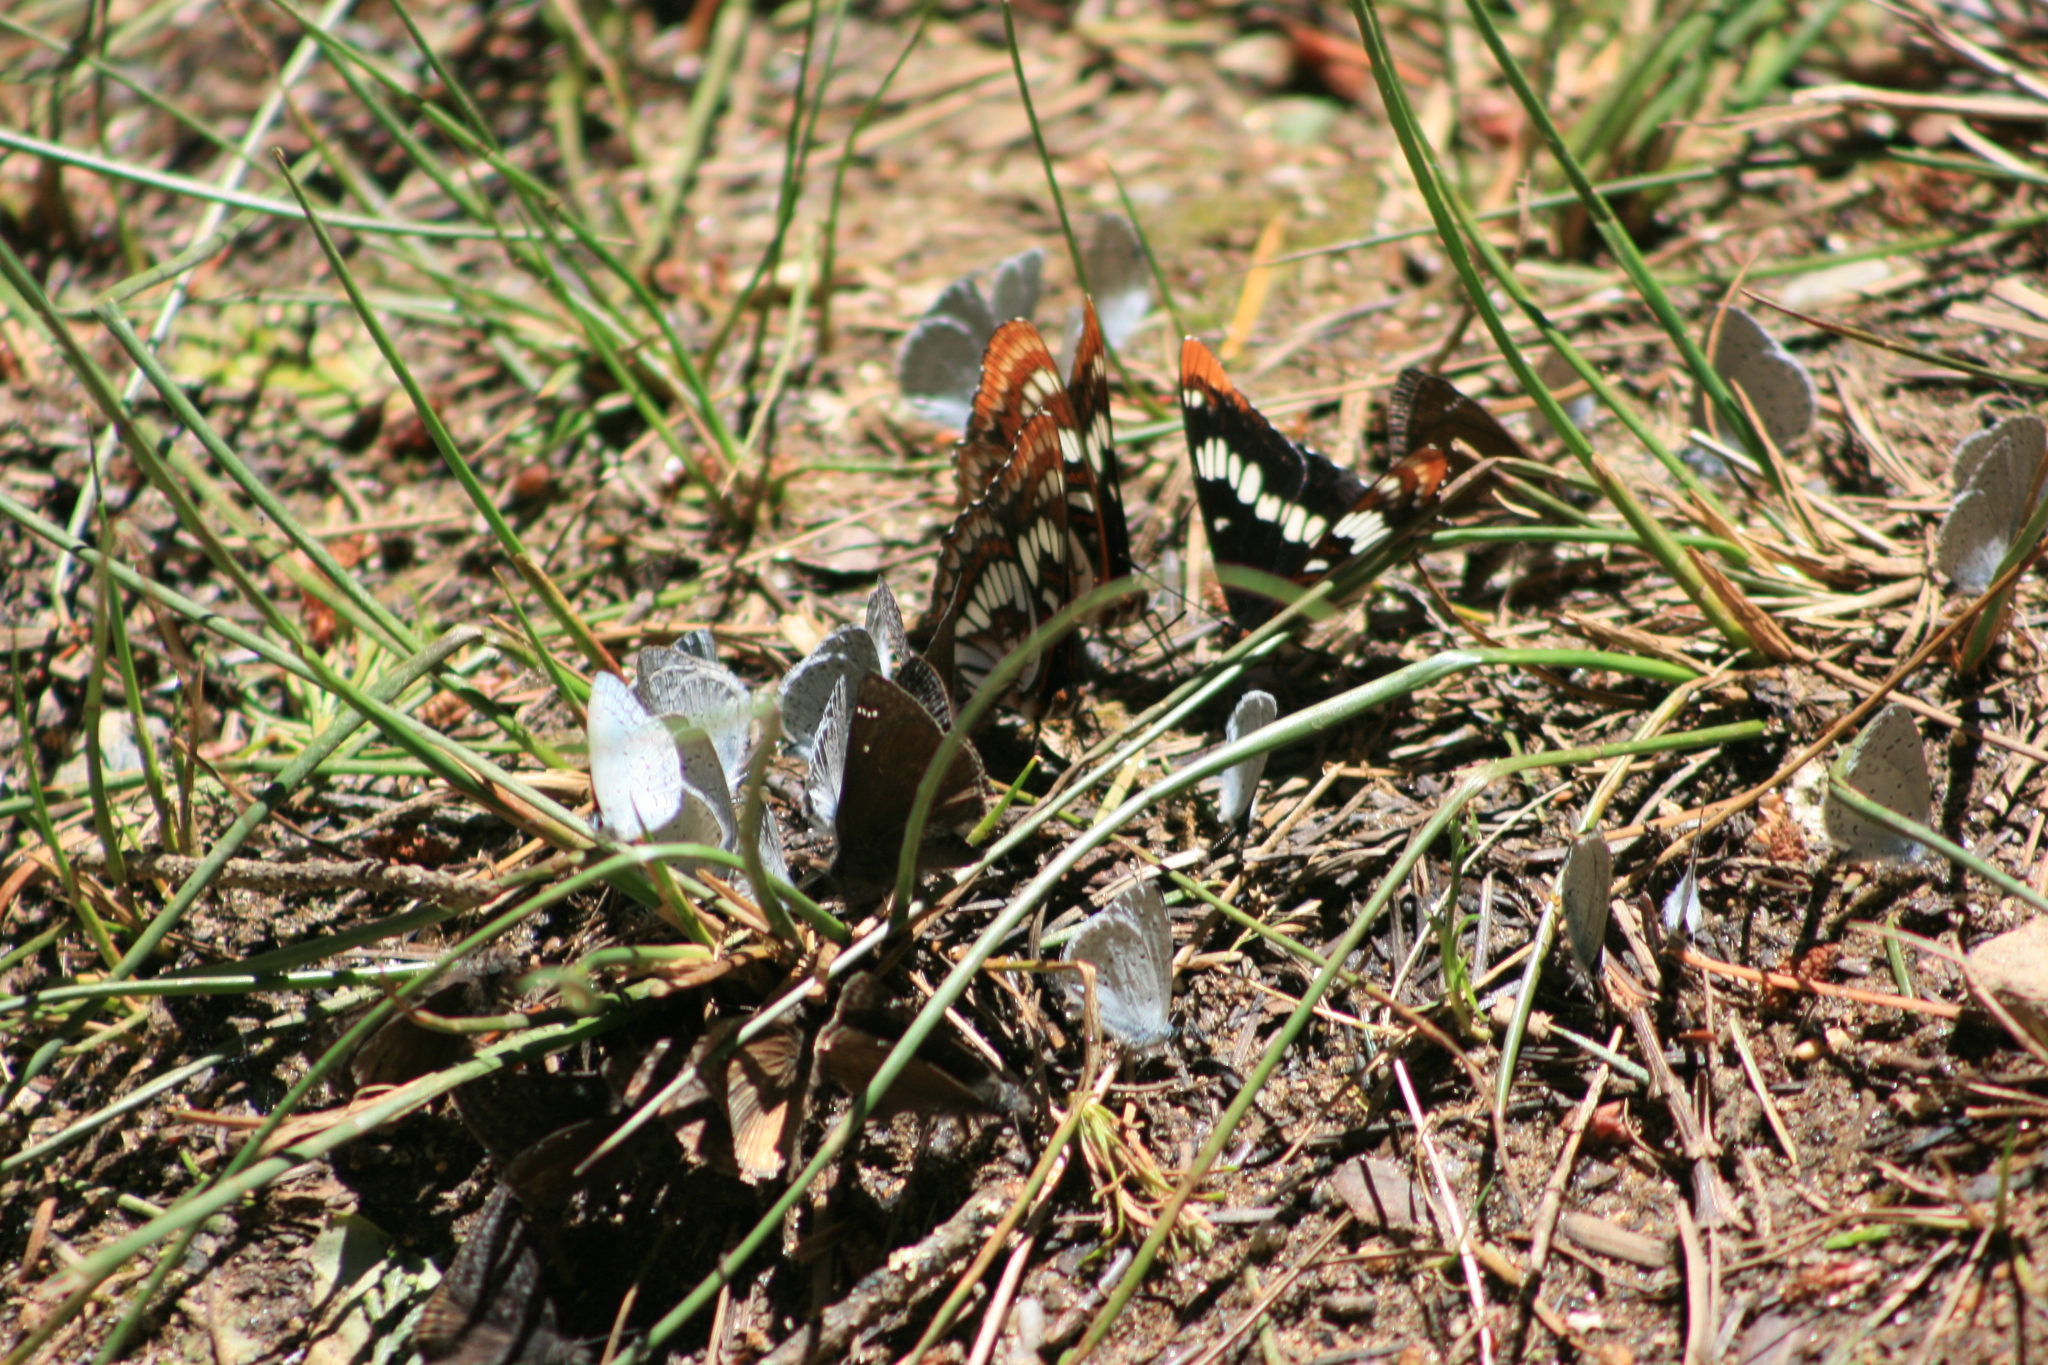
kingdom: Animalia
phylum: Arthropoda
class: Insecta
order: Lepidoptera
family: Nymphalidae
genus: Limenitis
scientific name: Limenitis lorquini
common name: Lorquin's admiral
